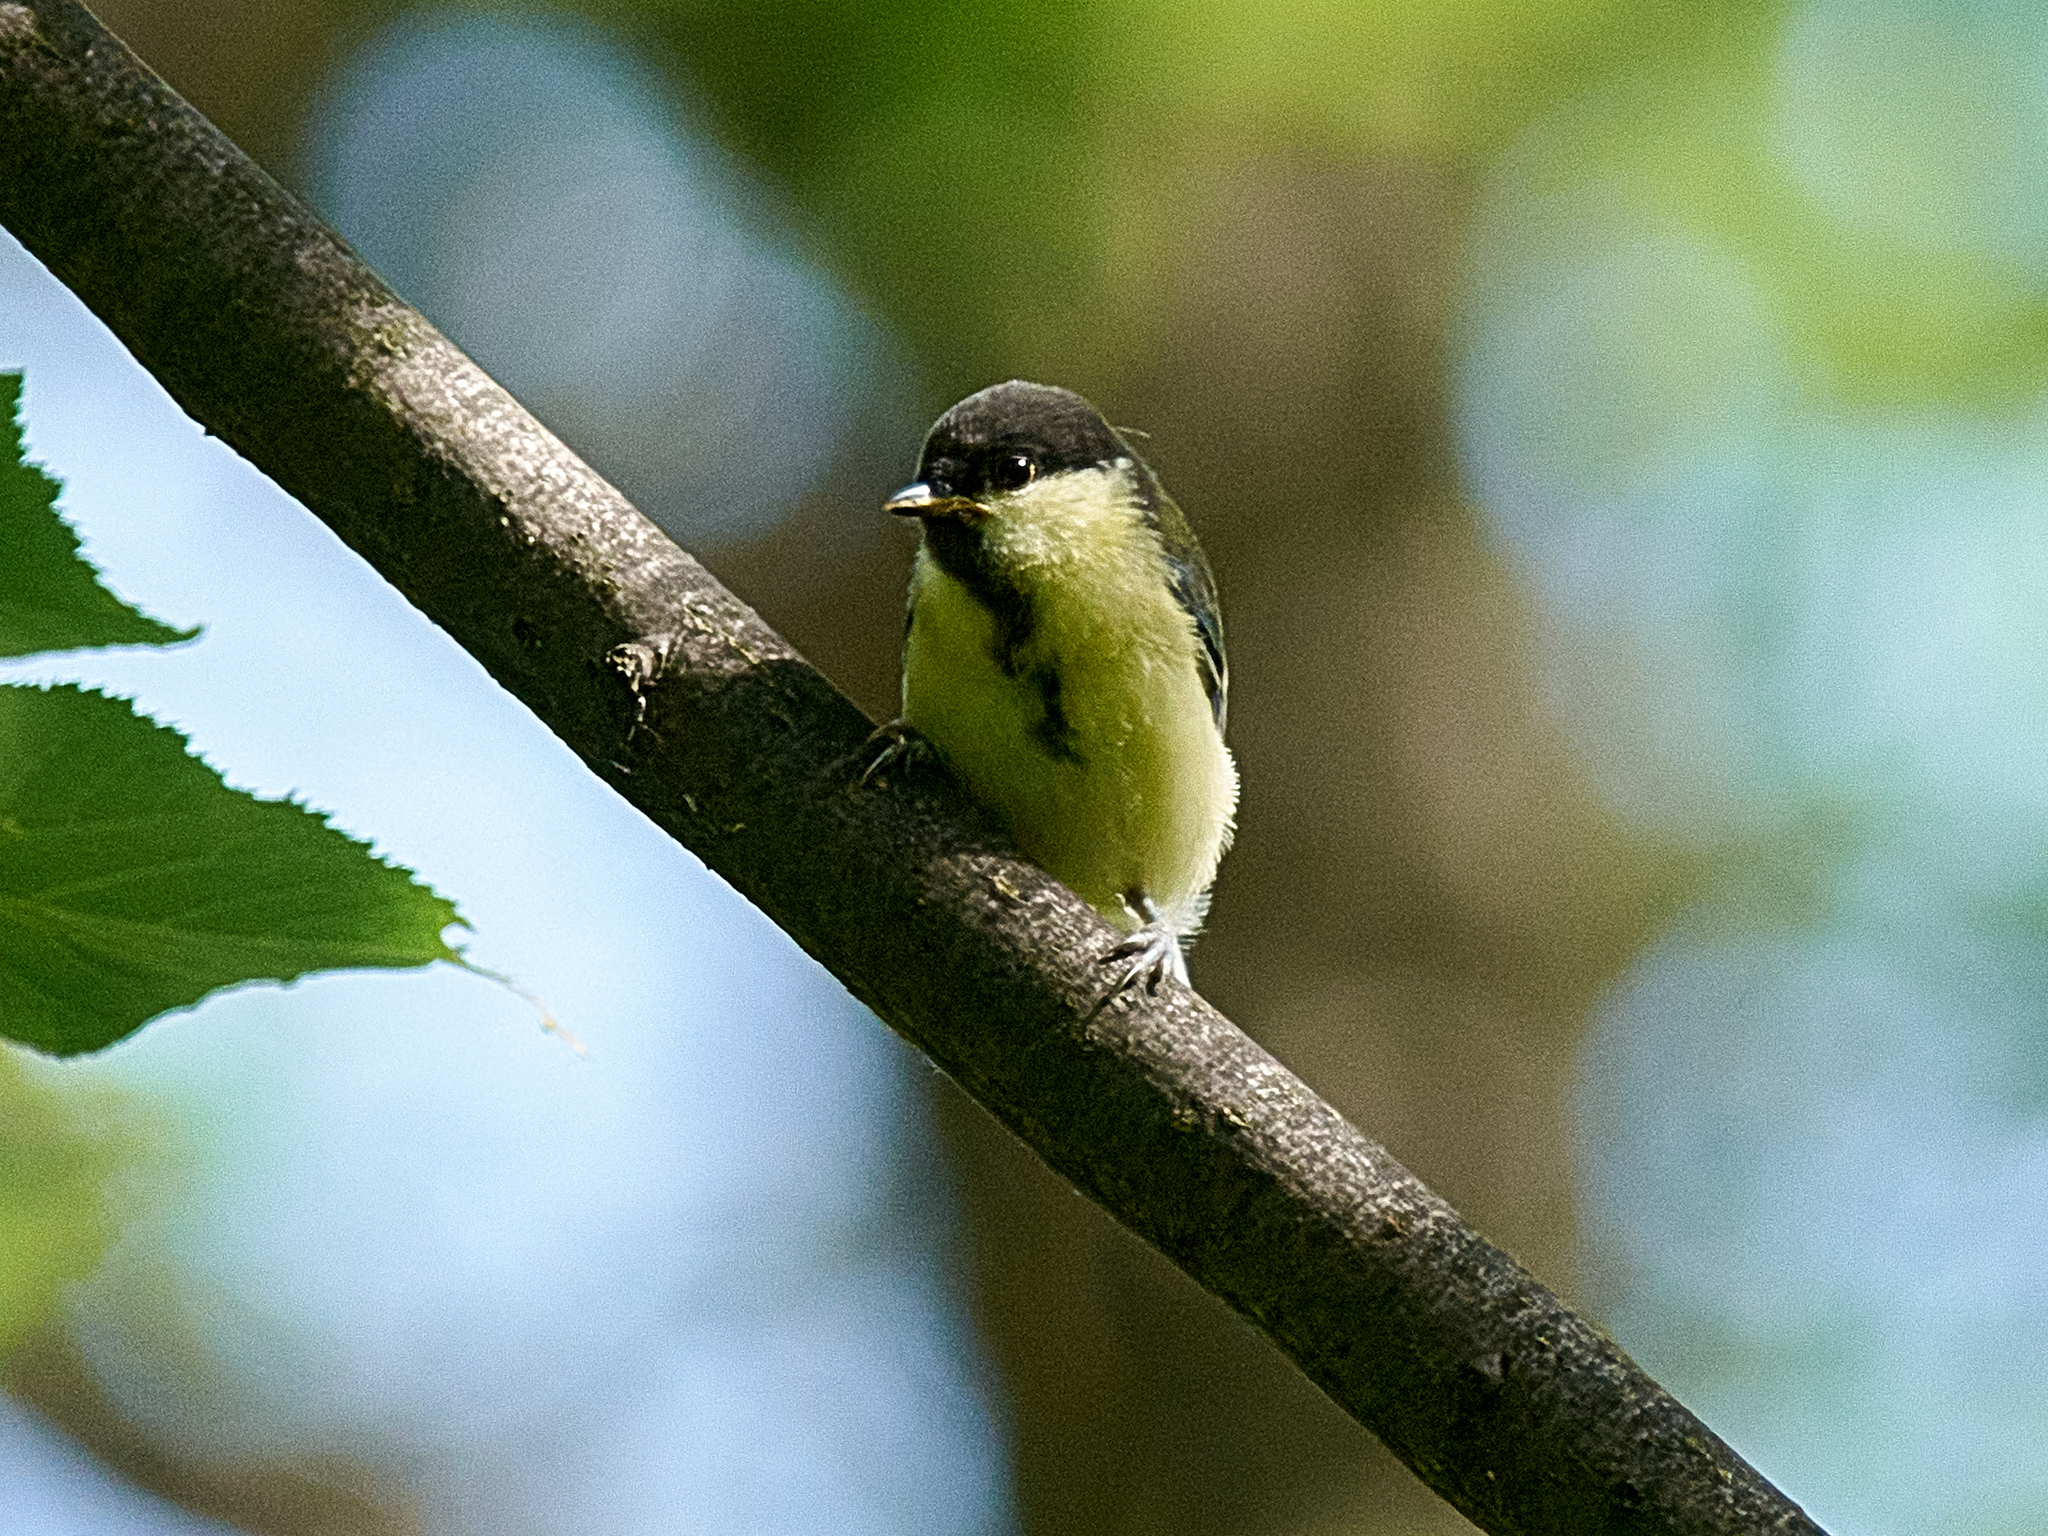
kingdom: Animalia
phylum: Chordata
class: Aves
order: Passeriformes
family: Paridae
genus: Parus
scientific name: Parus major
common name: Great tit
